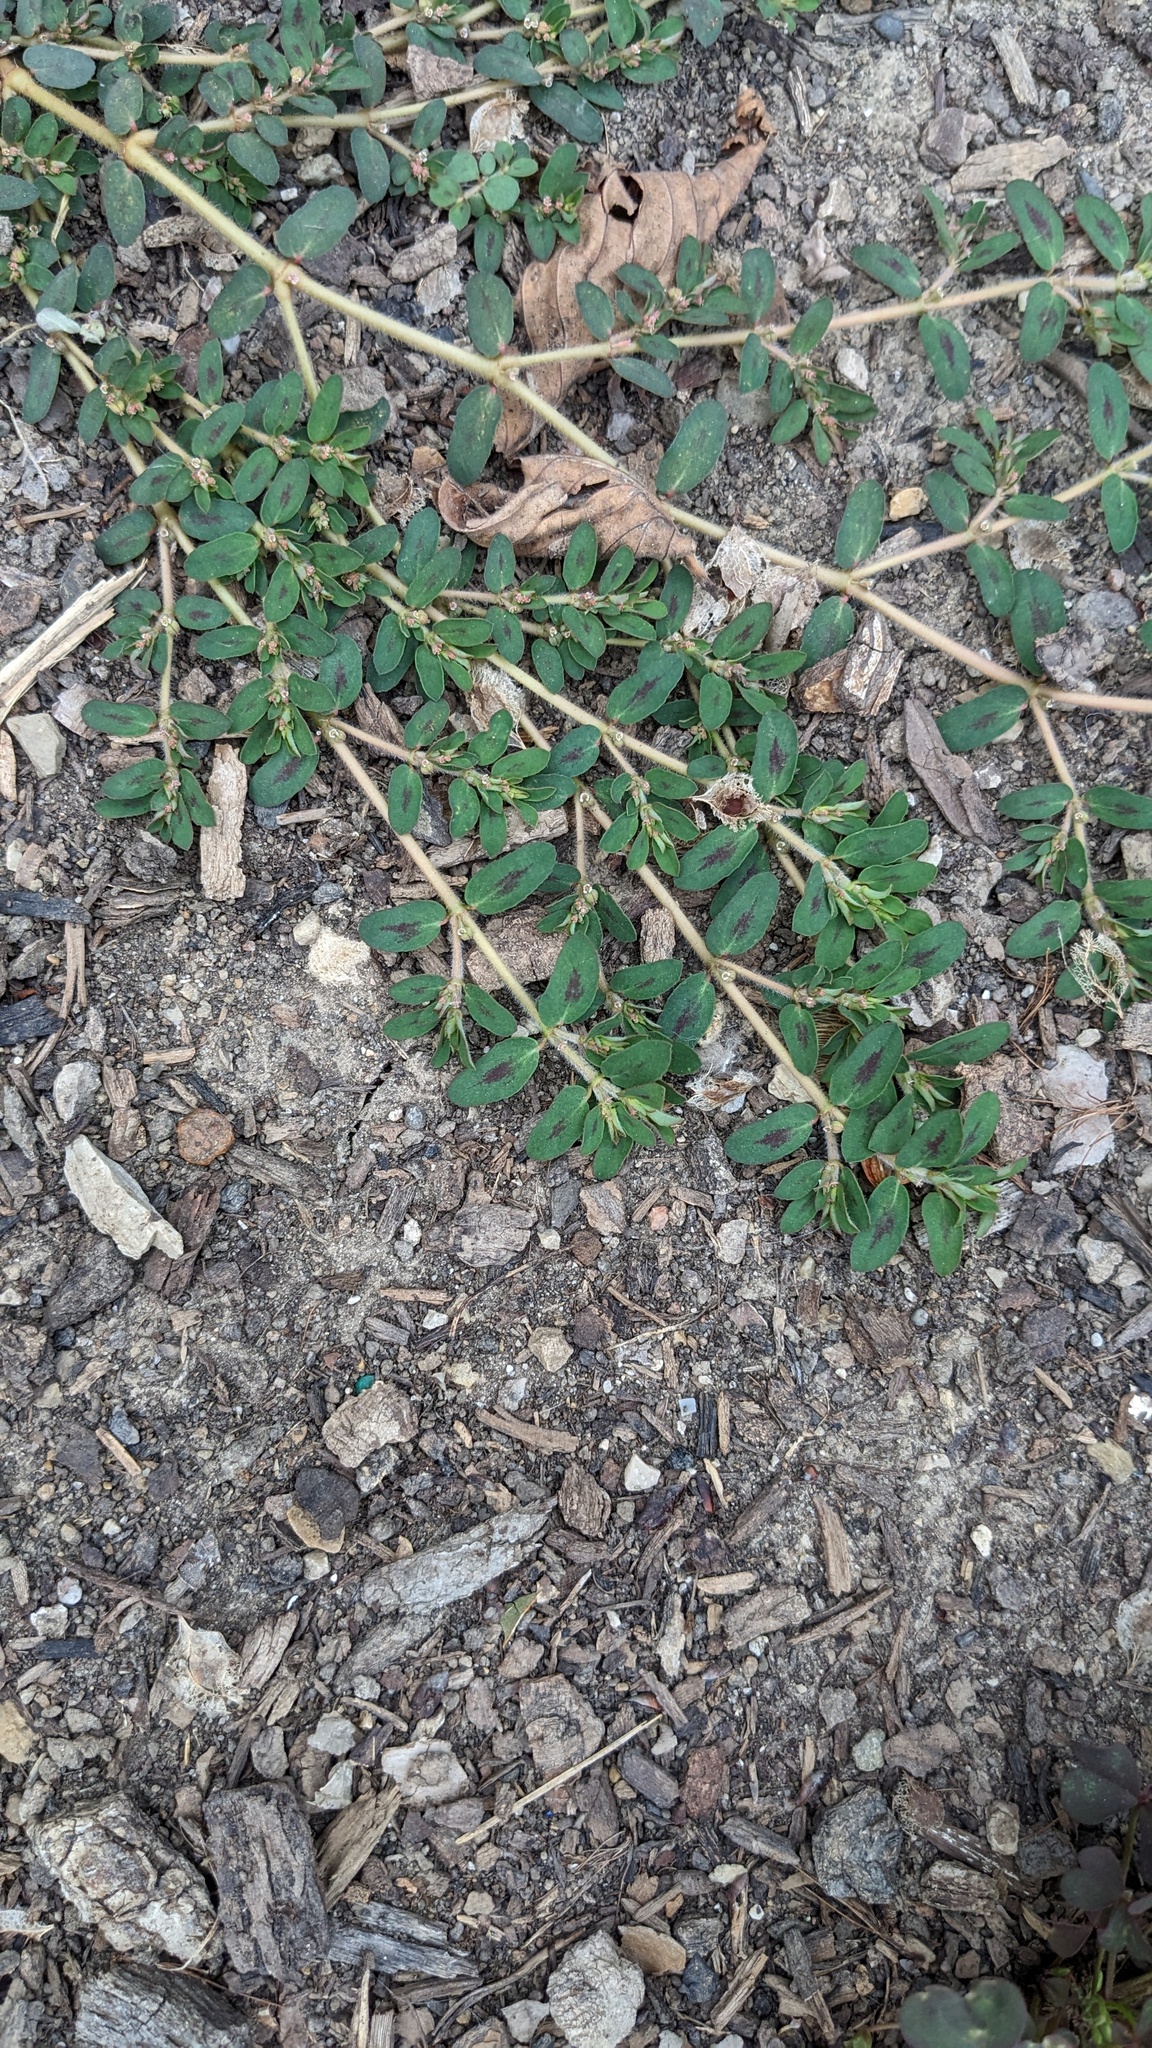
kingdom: Plantae
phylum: Tracheophyta
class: Magnoliopsida
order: Malpighiales
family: Euphorbiaceae
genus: Euphorbia
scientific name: Euphorbia maculata
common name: Spotted spurge
